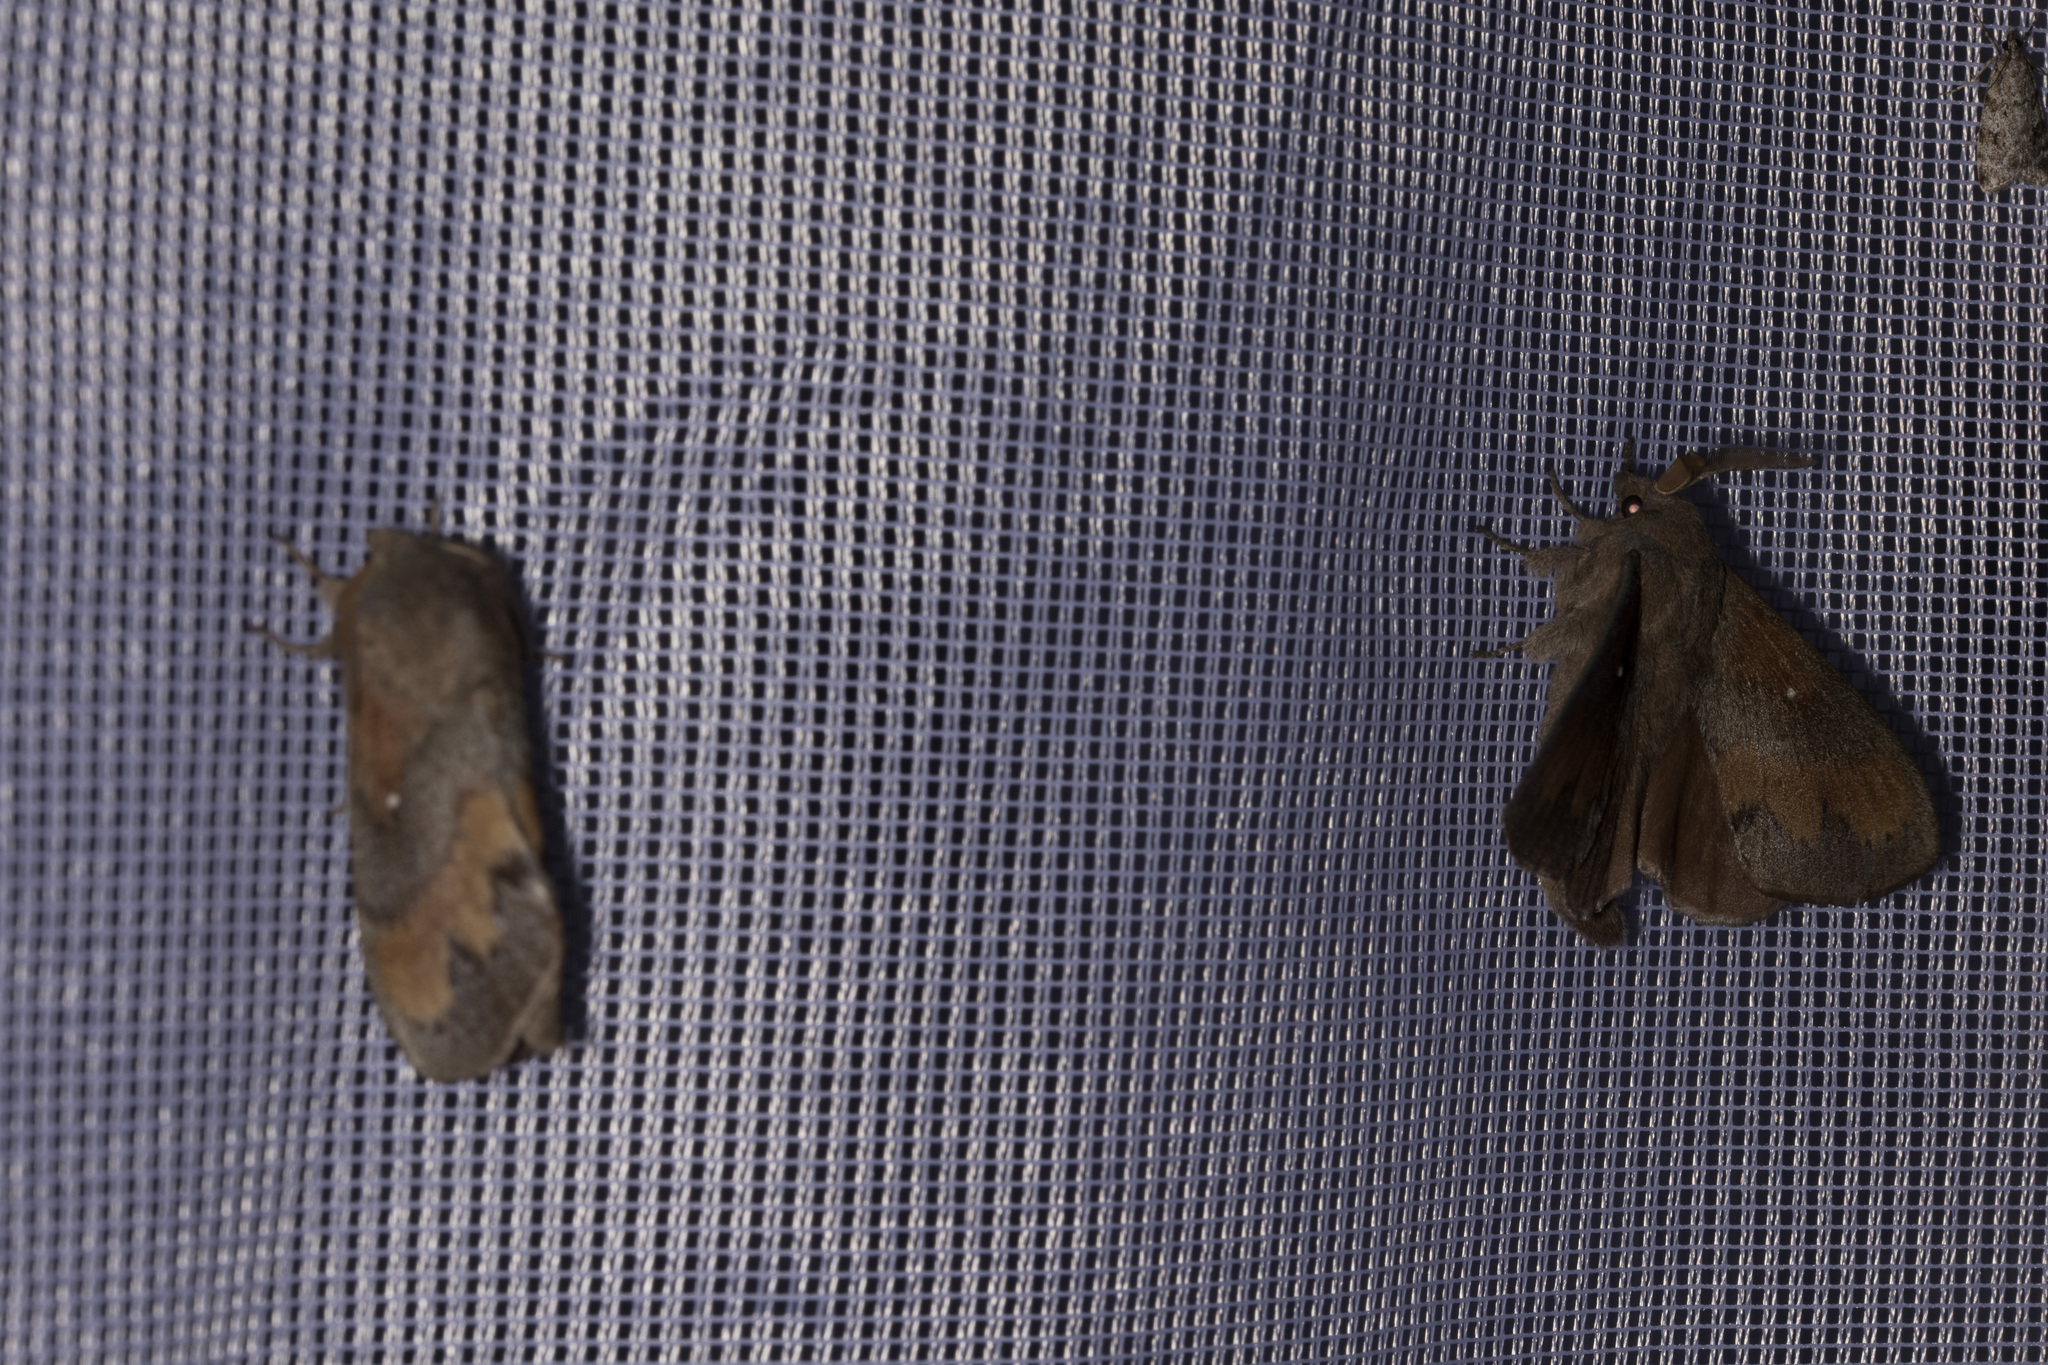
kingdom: Animalia
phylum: Arthropoda
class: Insecta
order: Lepidoptera
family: Lasiocampidae
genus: Dendrolimus
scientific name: Dendrolimus pini
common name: Pine-tree lappet
